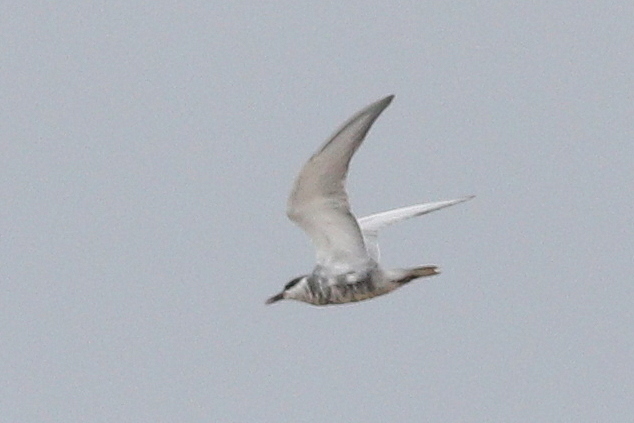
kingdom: Animalia
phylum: Chordata
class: Aves
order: Charadriiformes
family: Laridae
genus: Chlidonias
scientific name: Chlidonias hybrida
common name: Whiskered tern
